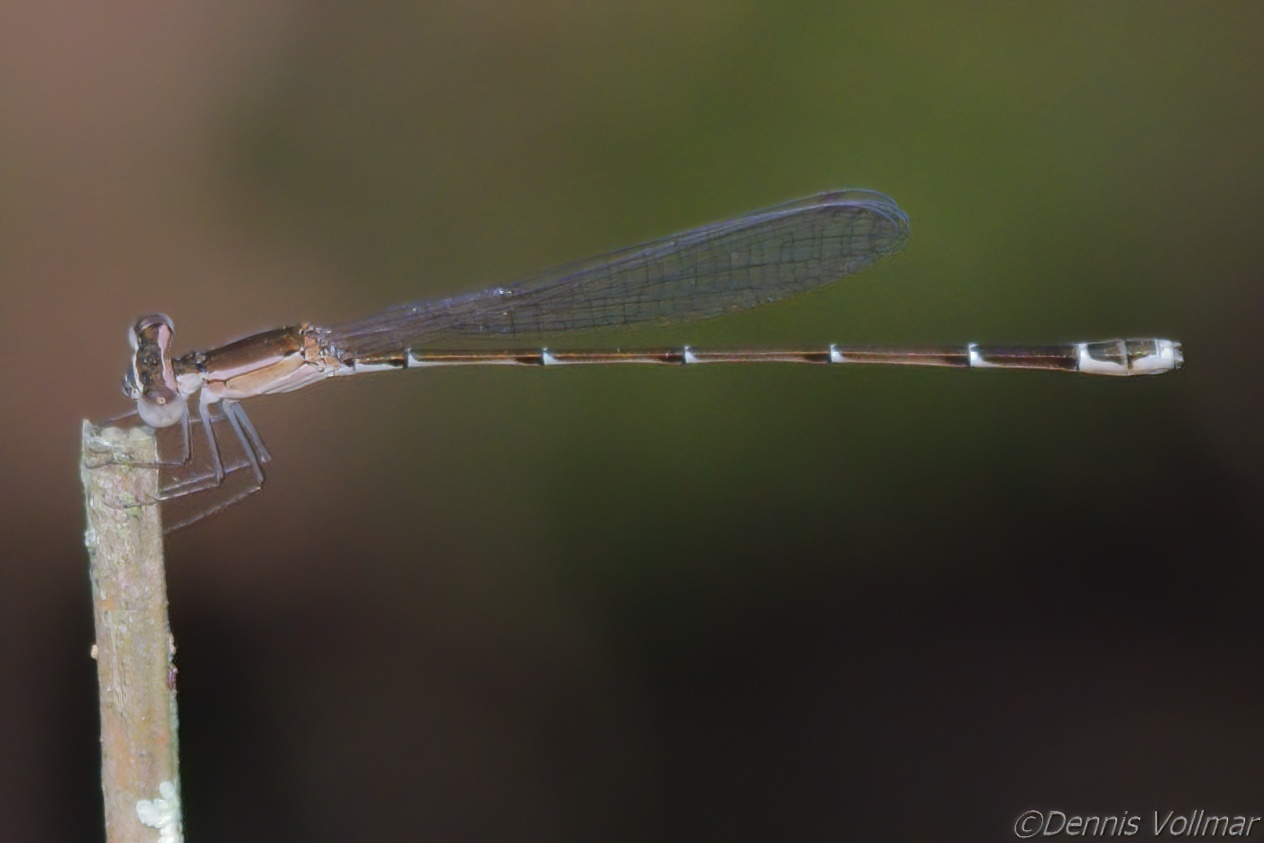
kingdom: Animalia
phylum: Arthropoda
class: Insecta
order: Odonata
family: Coenagrionidae
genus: Nehalennia
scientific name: Nehalennia pallidula
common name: Everglades sprite
